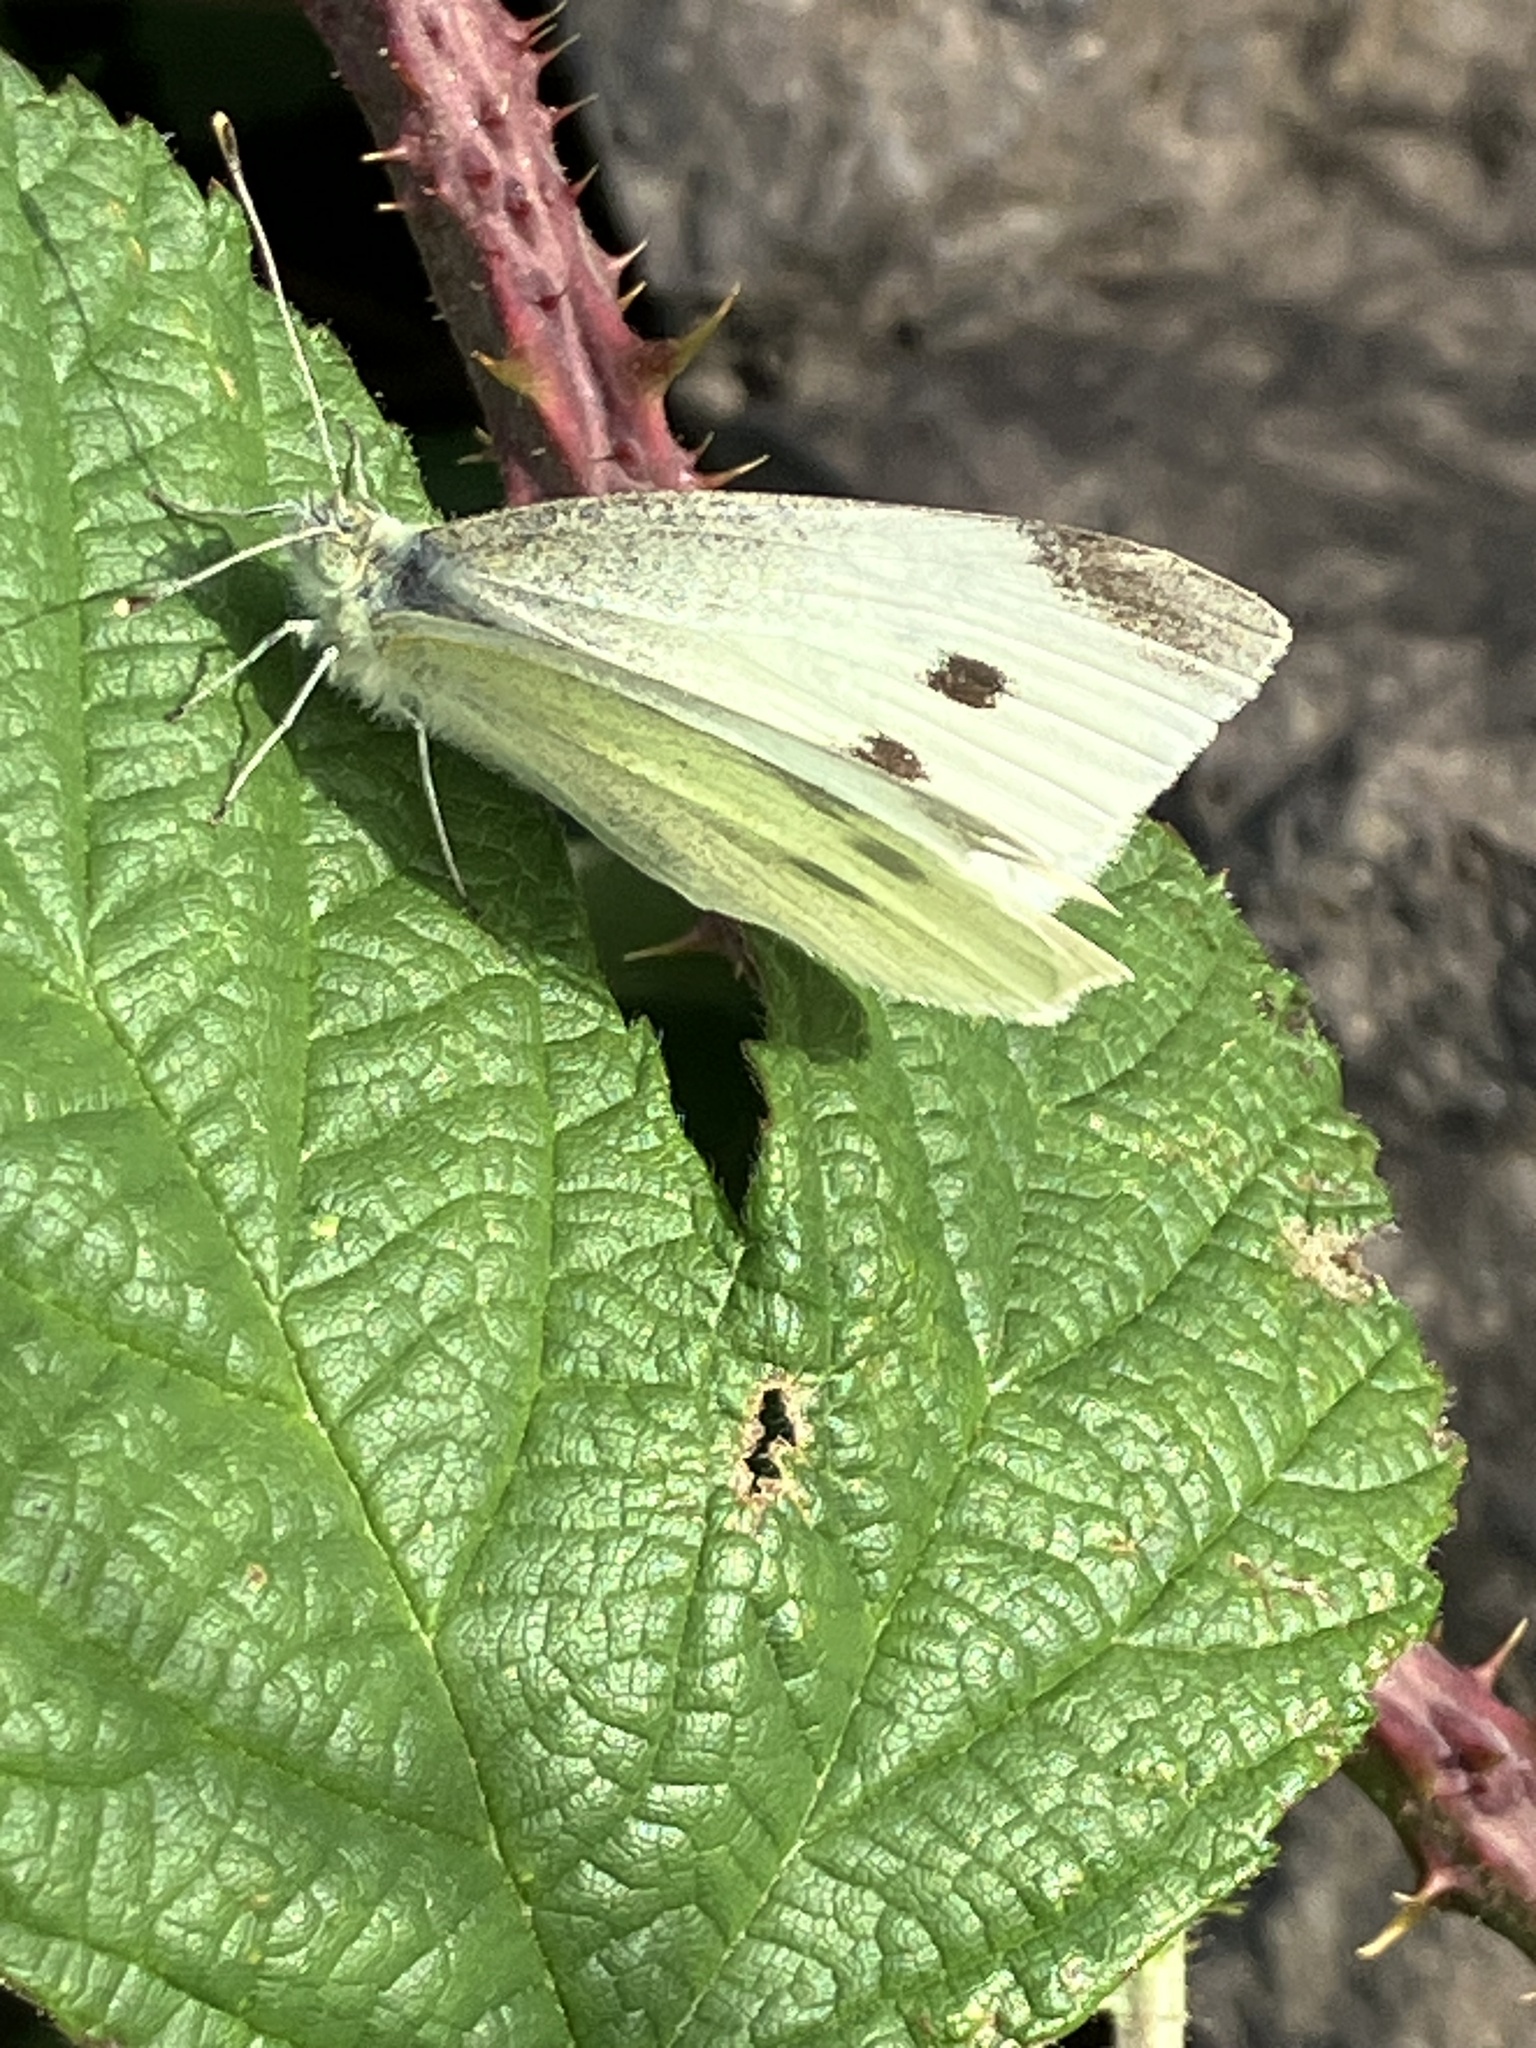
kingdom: Animalia
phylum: Arthropoda
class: Insecta
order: Lepidoptera
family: Pieridae
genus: Pieris
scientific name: Pieris rapae
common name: Small white
